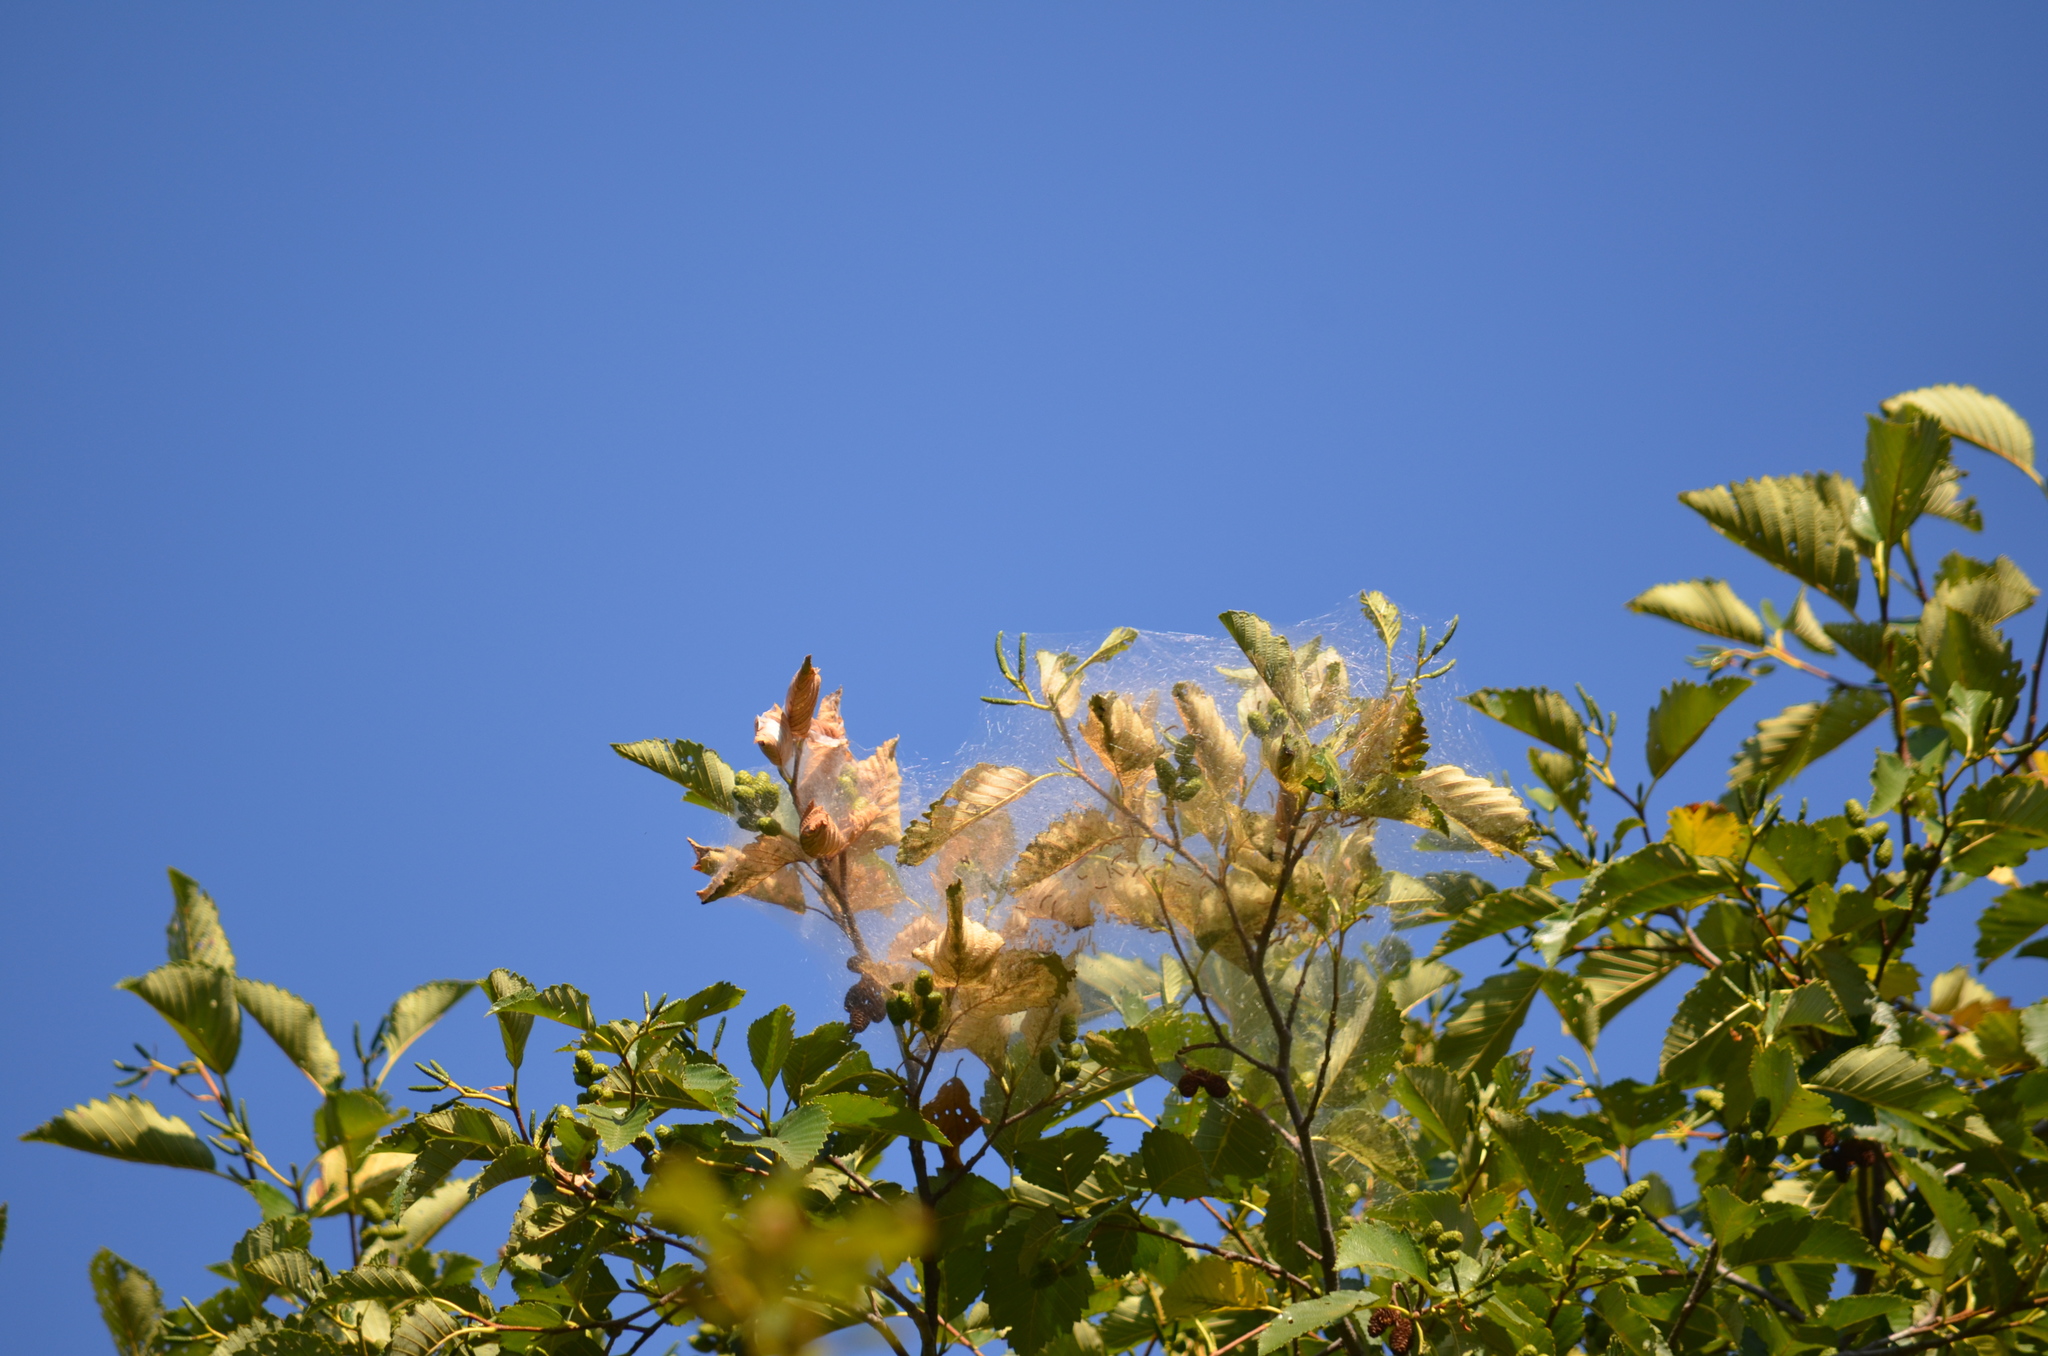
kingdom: Animalia
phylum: Arthropoda
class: Insecta
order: Lepidoptera
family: Erebidae
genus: Hyphantria
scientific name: Hyphantria cunea
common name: American white moth
